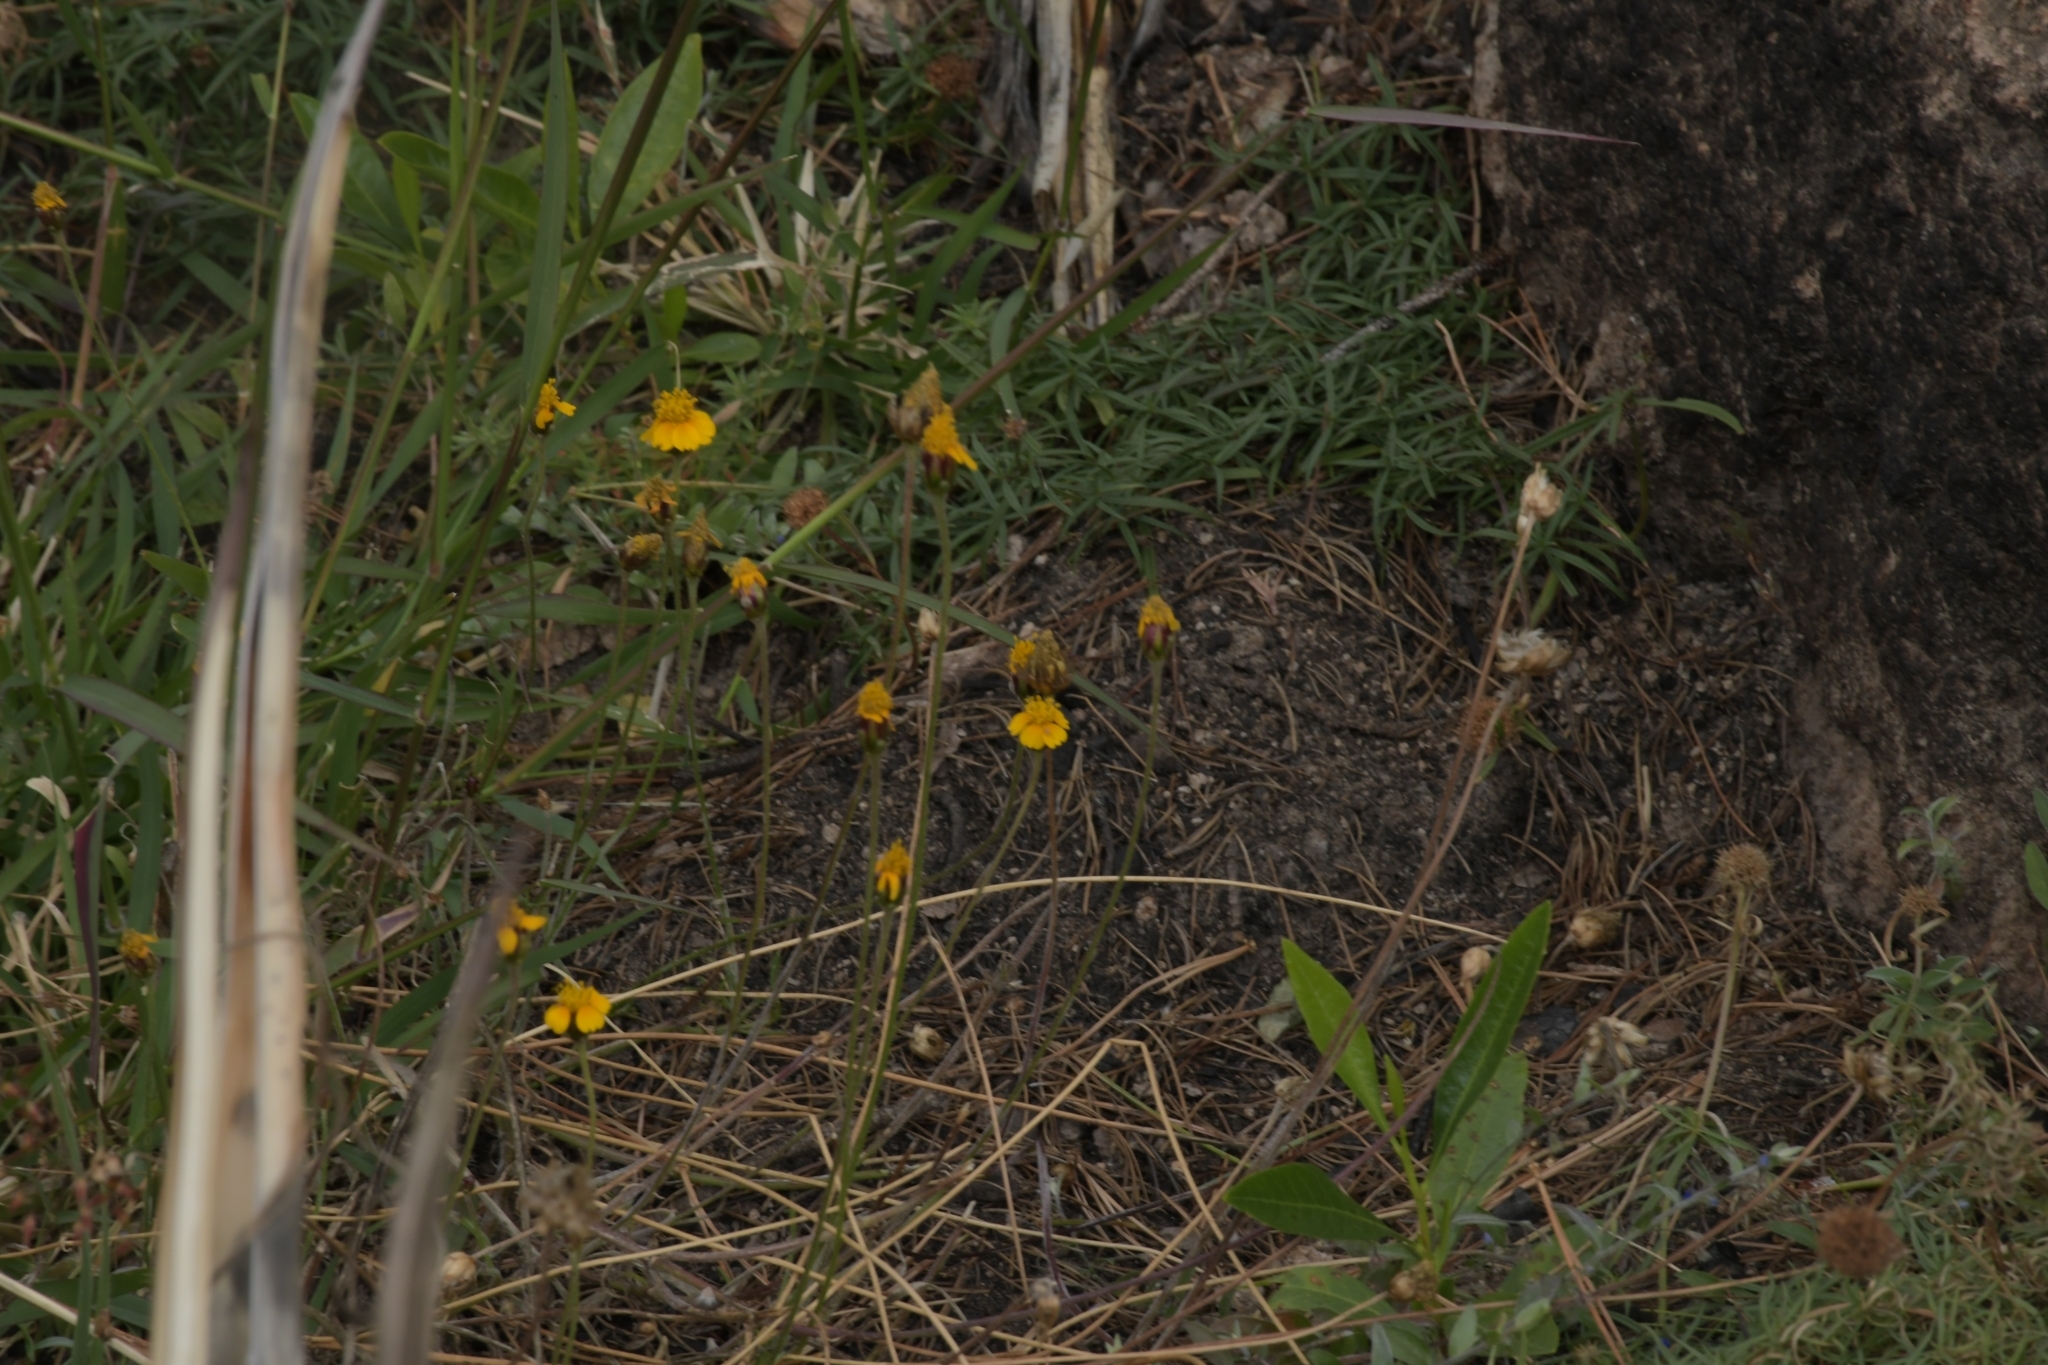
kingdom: Plantae
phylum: Tracheophyta
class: Magnoliopsida
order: Asterales
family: Asteraceae
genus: Tridax
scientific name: Tridax balbisioides
